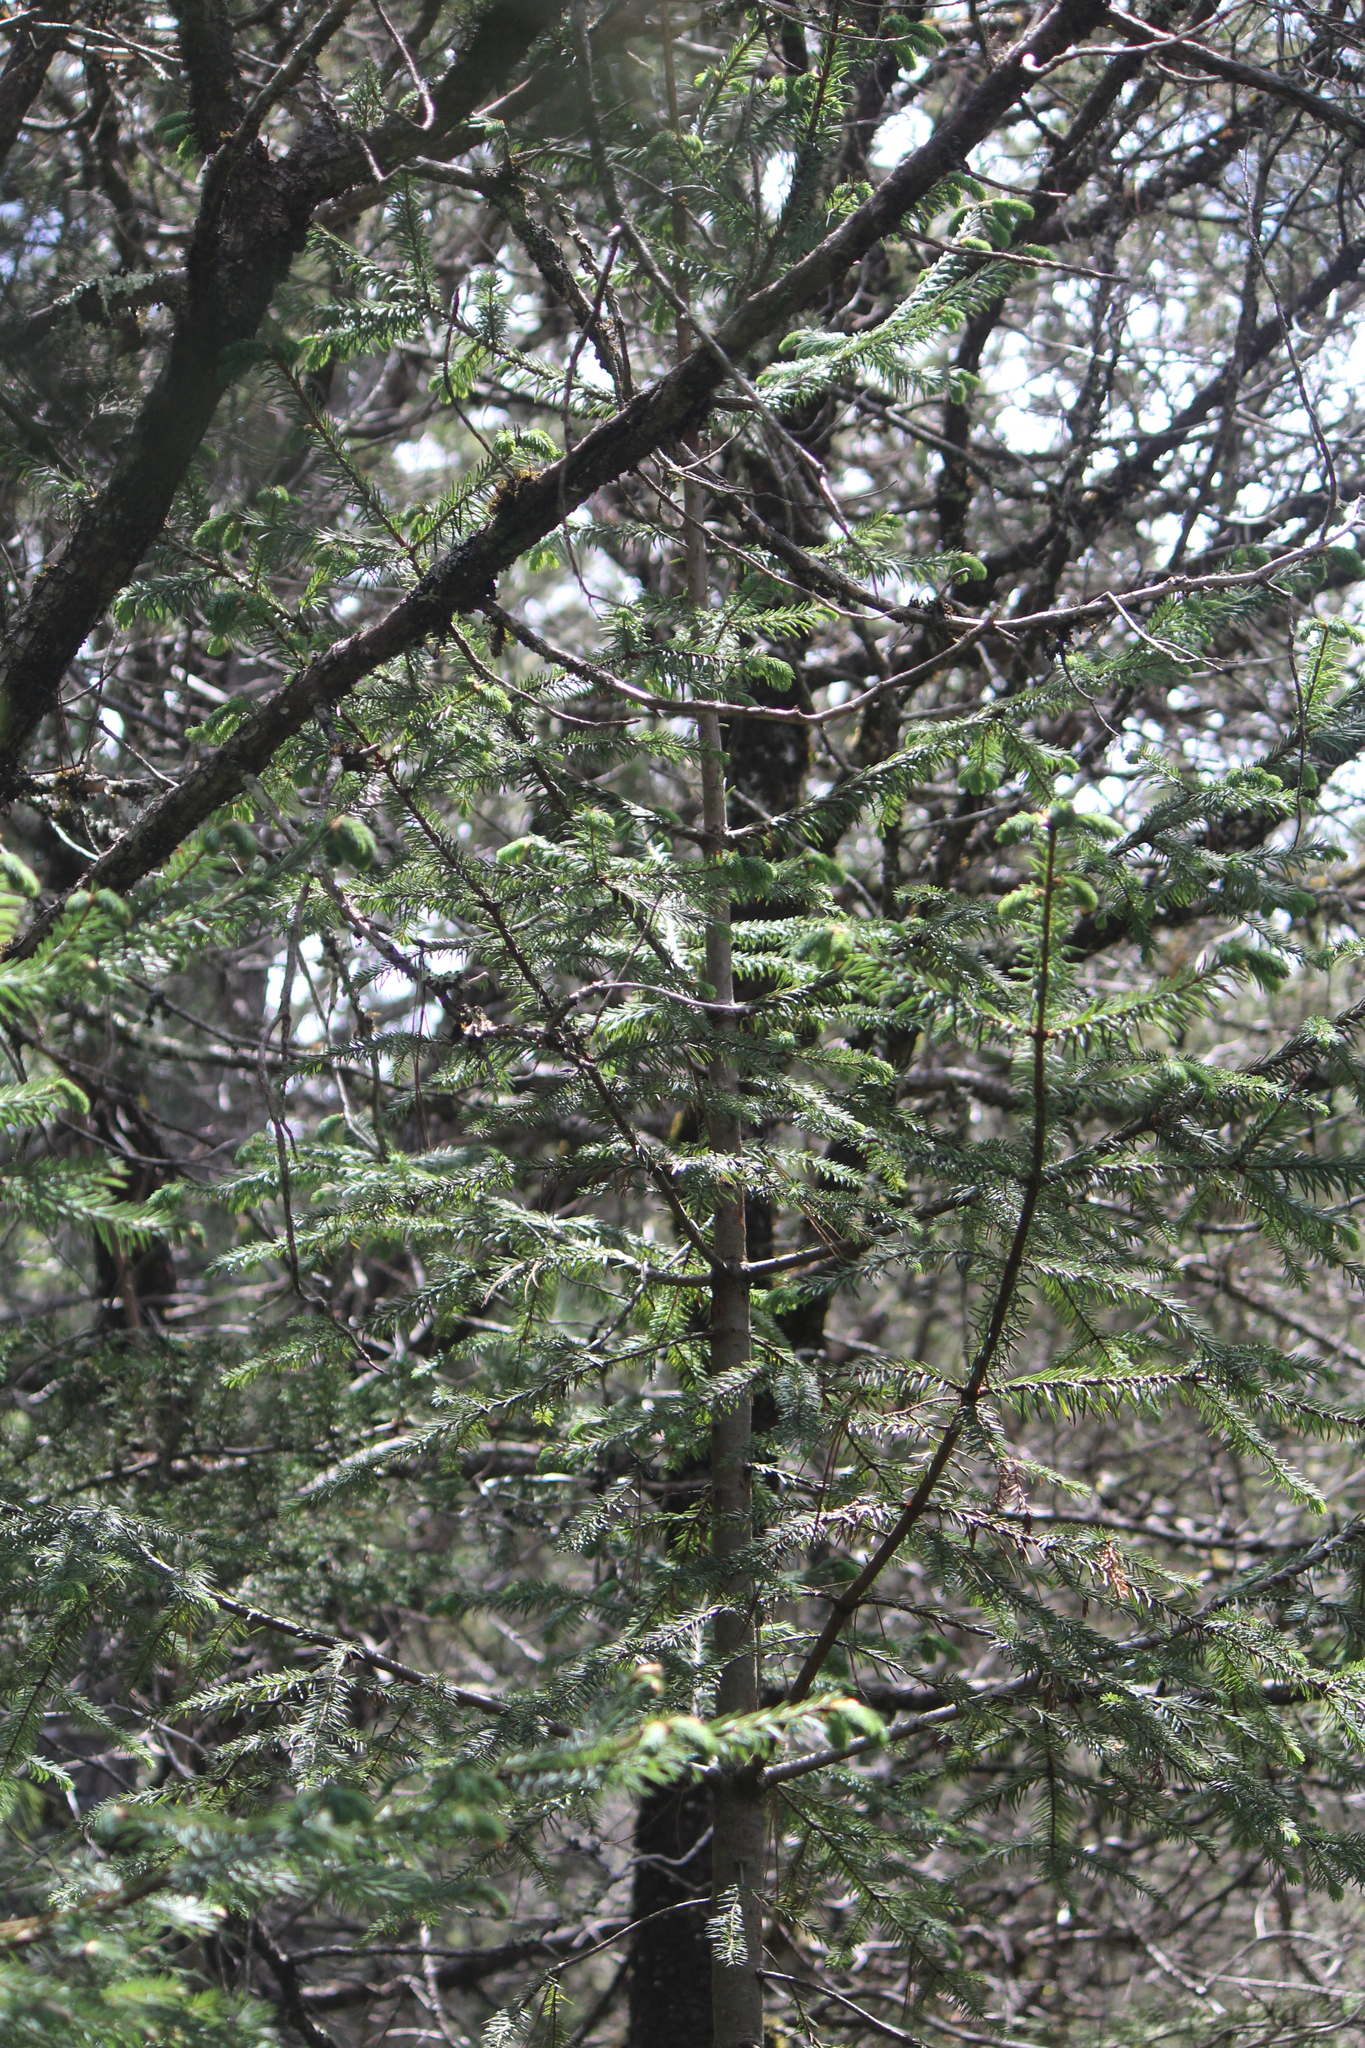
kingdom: Plantae
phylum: Tracheophyta
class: Pinopsida
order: Pinales
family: Pinaceae
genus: Abies
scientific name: Abies religiosa
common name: Sacred fir
